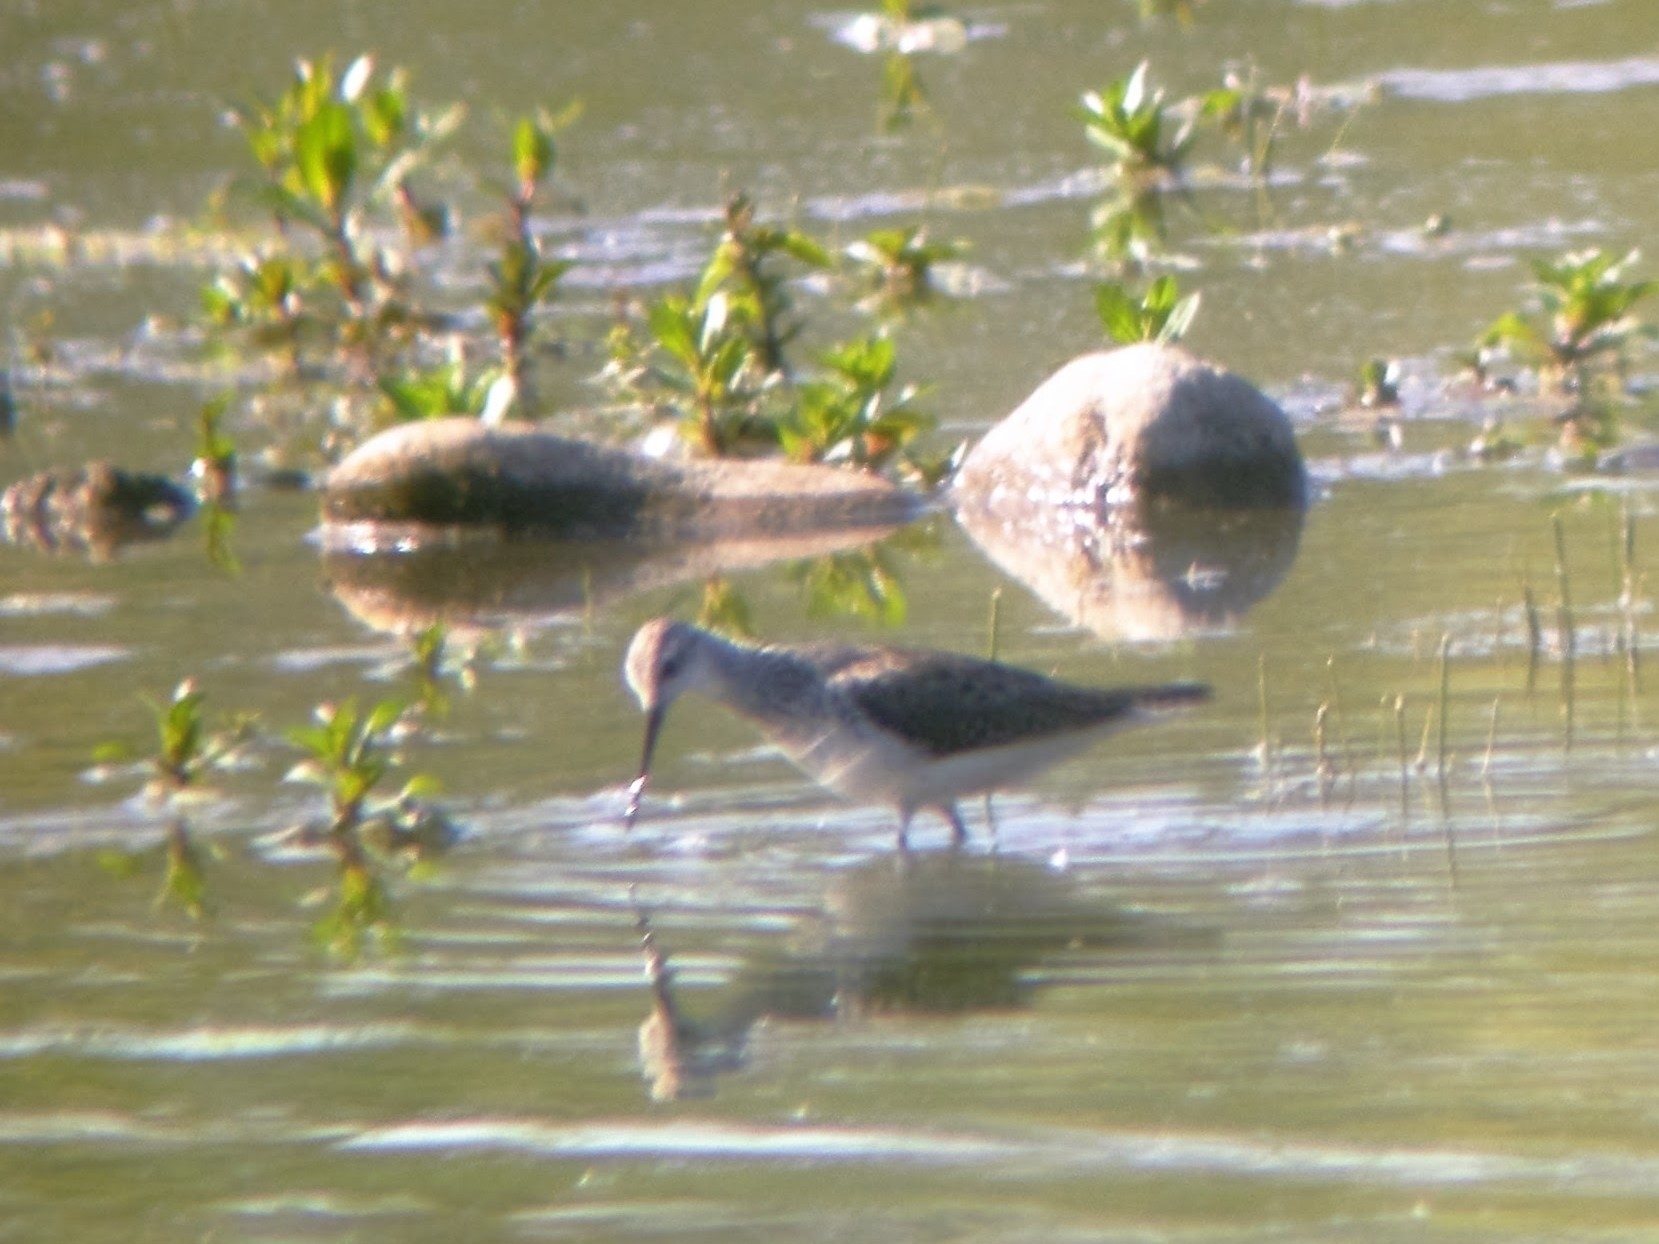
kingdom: Animalia
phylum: Chordata
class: Aves
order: Charadriiformes
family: Scolopacidae
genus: Tringa
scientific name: Tringa stagnatilis
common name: Marsh sandpiper
